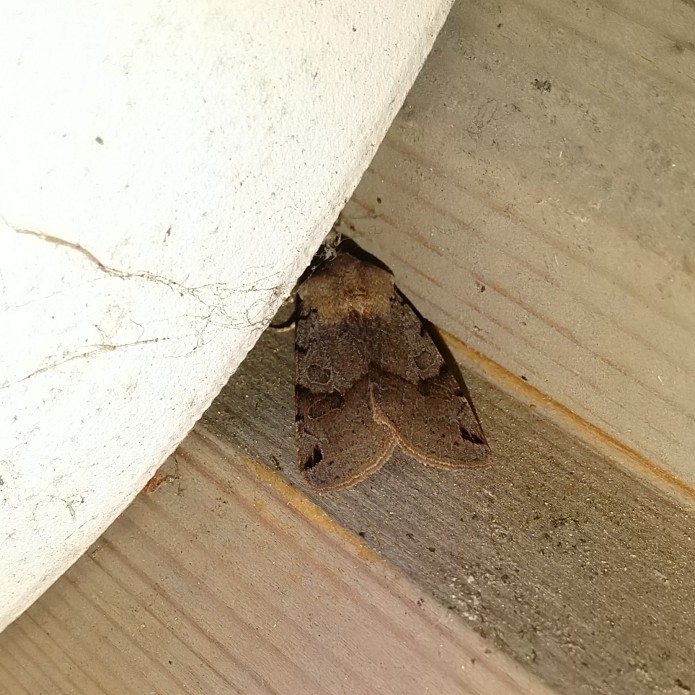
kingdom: Animalia
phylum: Arthropoda
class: Insecta
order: Lepidoptera
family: Noctuidae
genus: Agrochola
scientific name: Agrochola litura
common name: Brown-spot pinion
